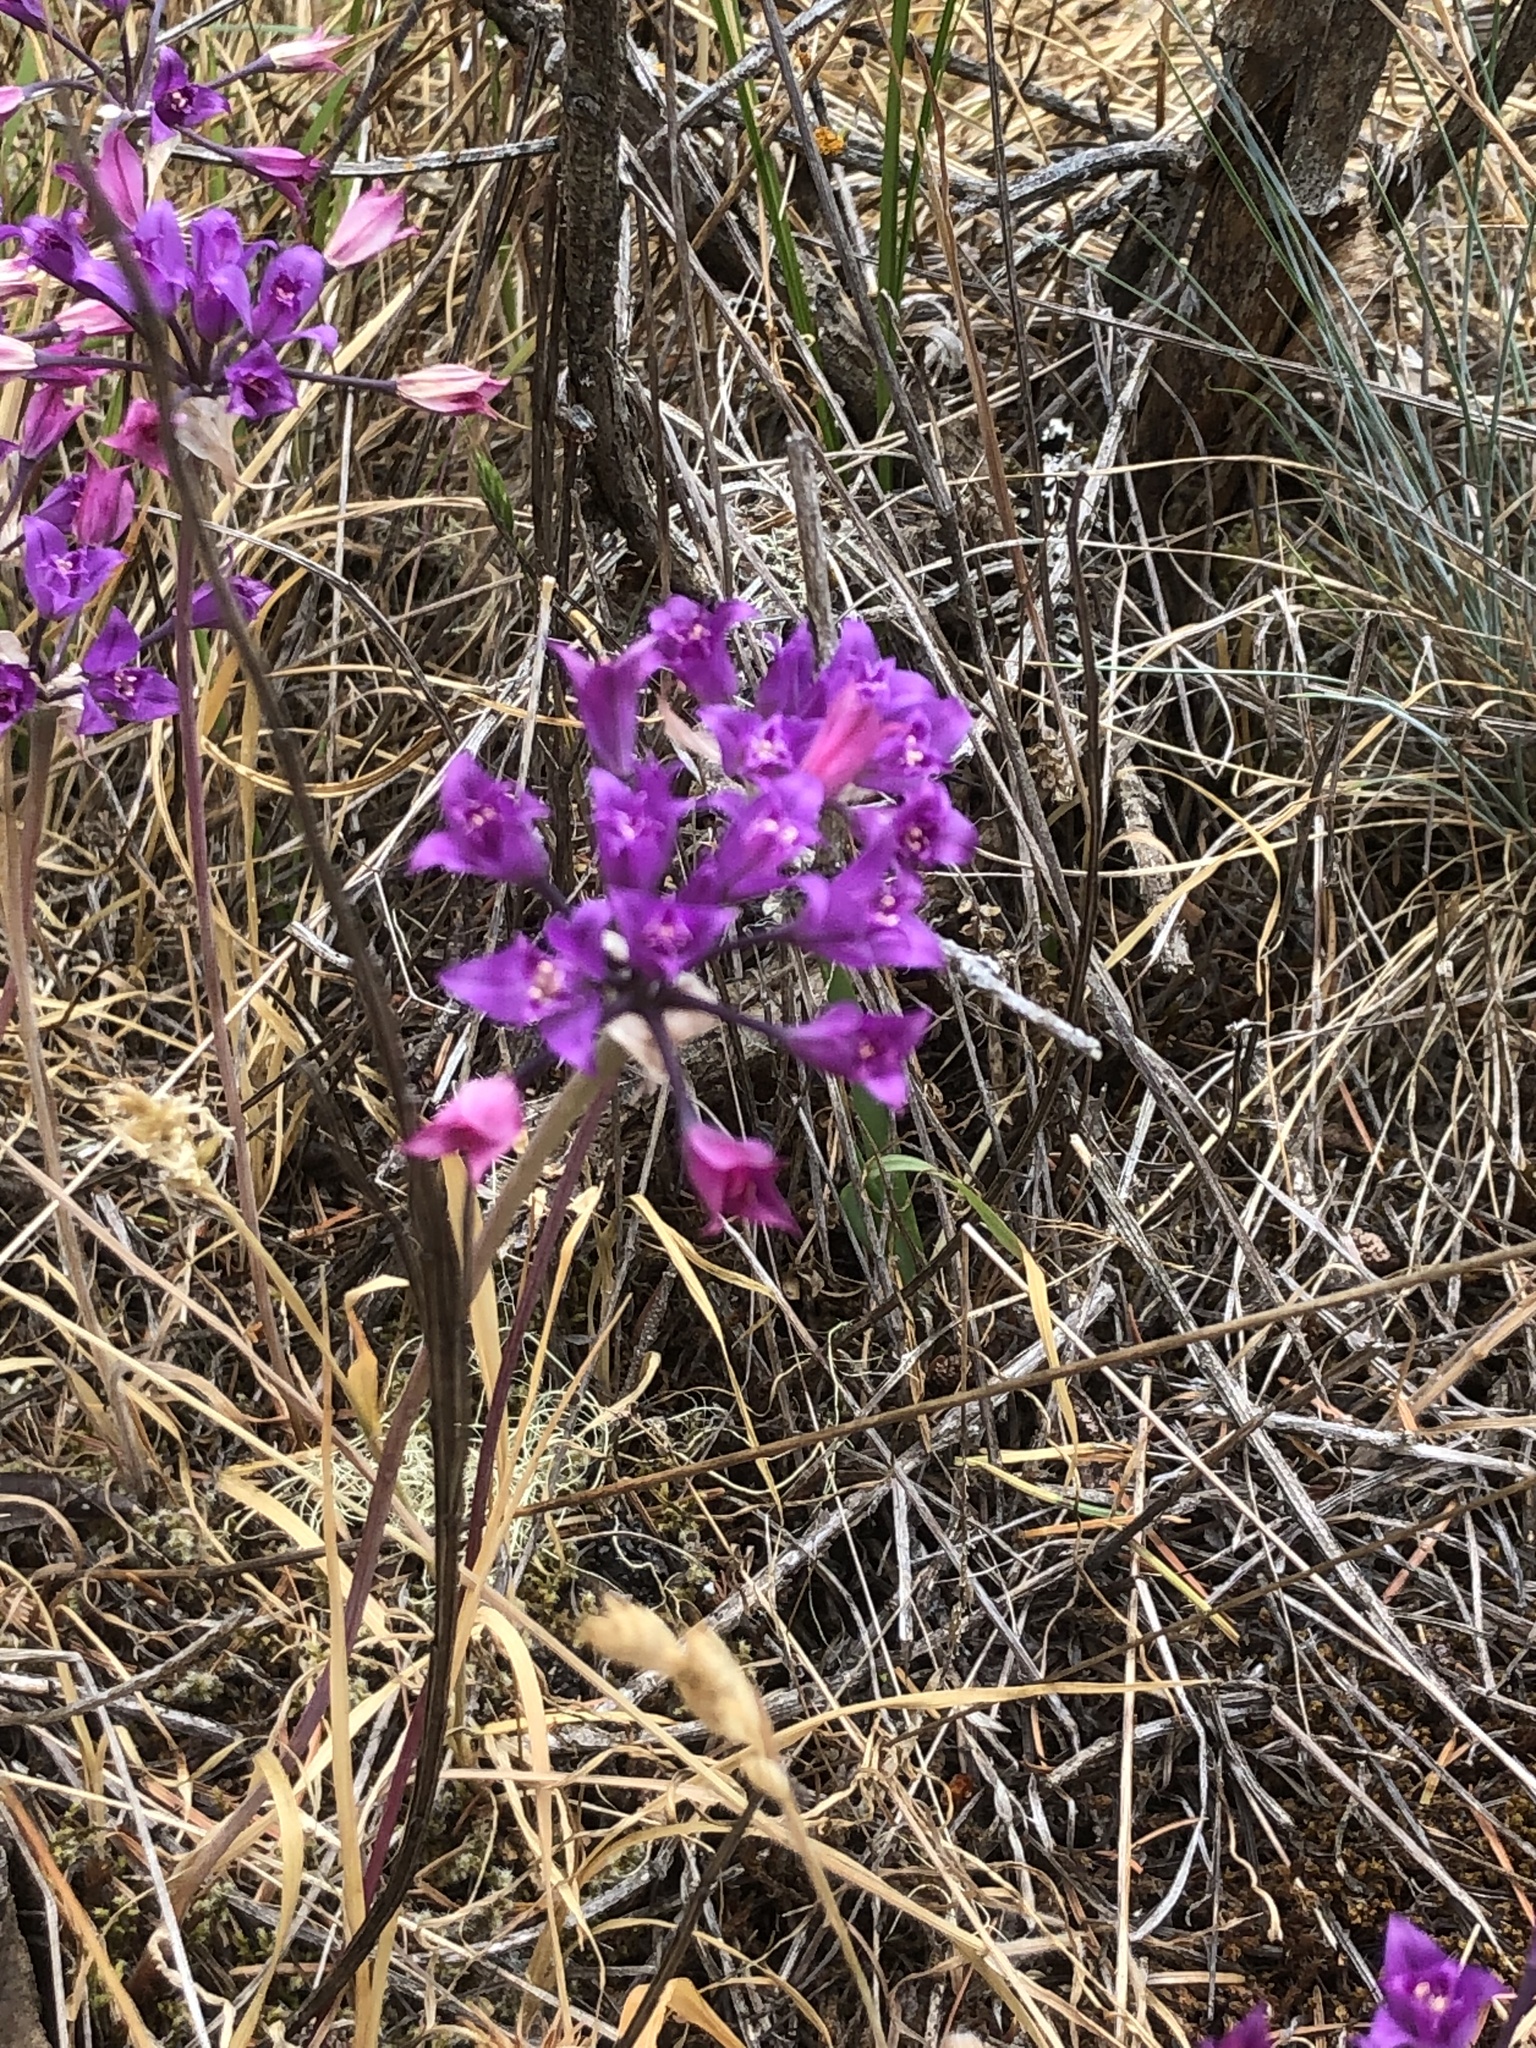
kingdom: Plantae
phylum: Tracheophyta
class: Liliopsida
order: Asparagales
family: Amaryllidaceae
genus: Allium
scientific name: Allium acuminatum
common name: Hooker's onion
